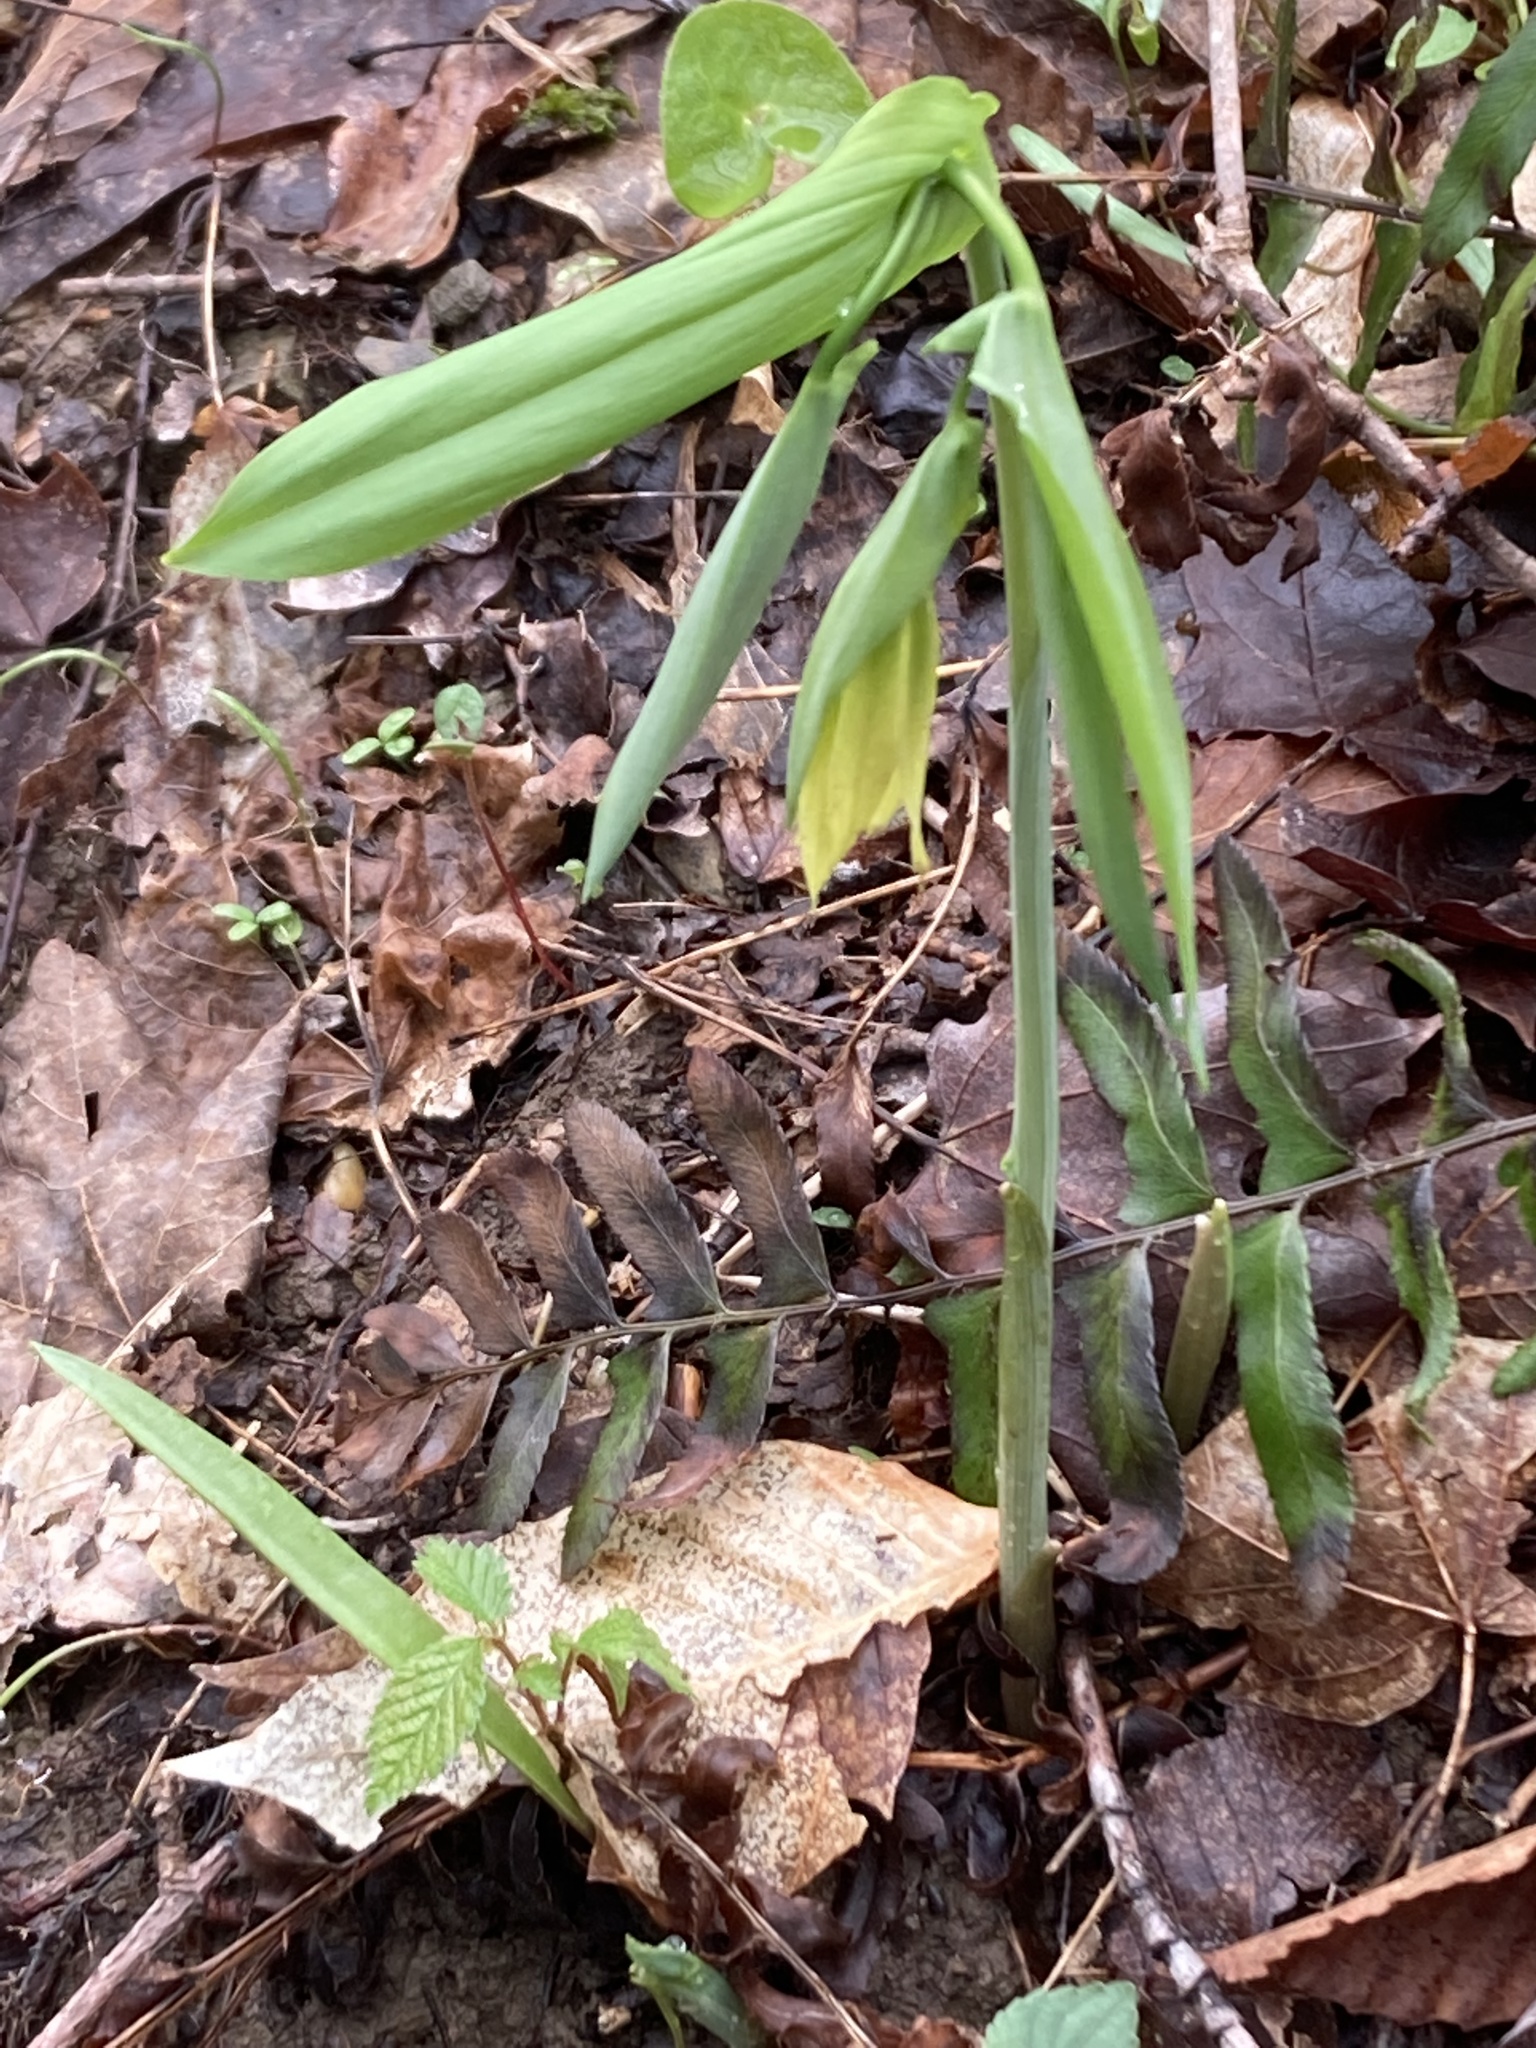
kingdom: Plantae
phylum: Tracheophyta
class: Liliopsida
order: Liliales
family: Colchicaceae
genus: Uvularia
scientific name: Uvularia grandiflora
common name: Bellwort
